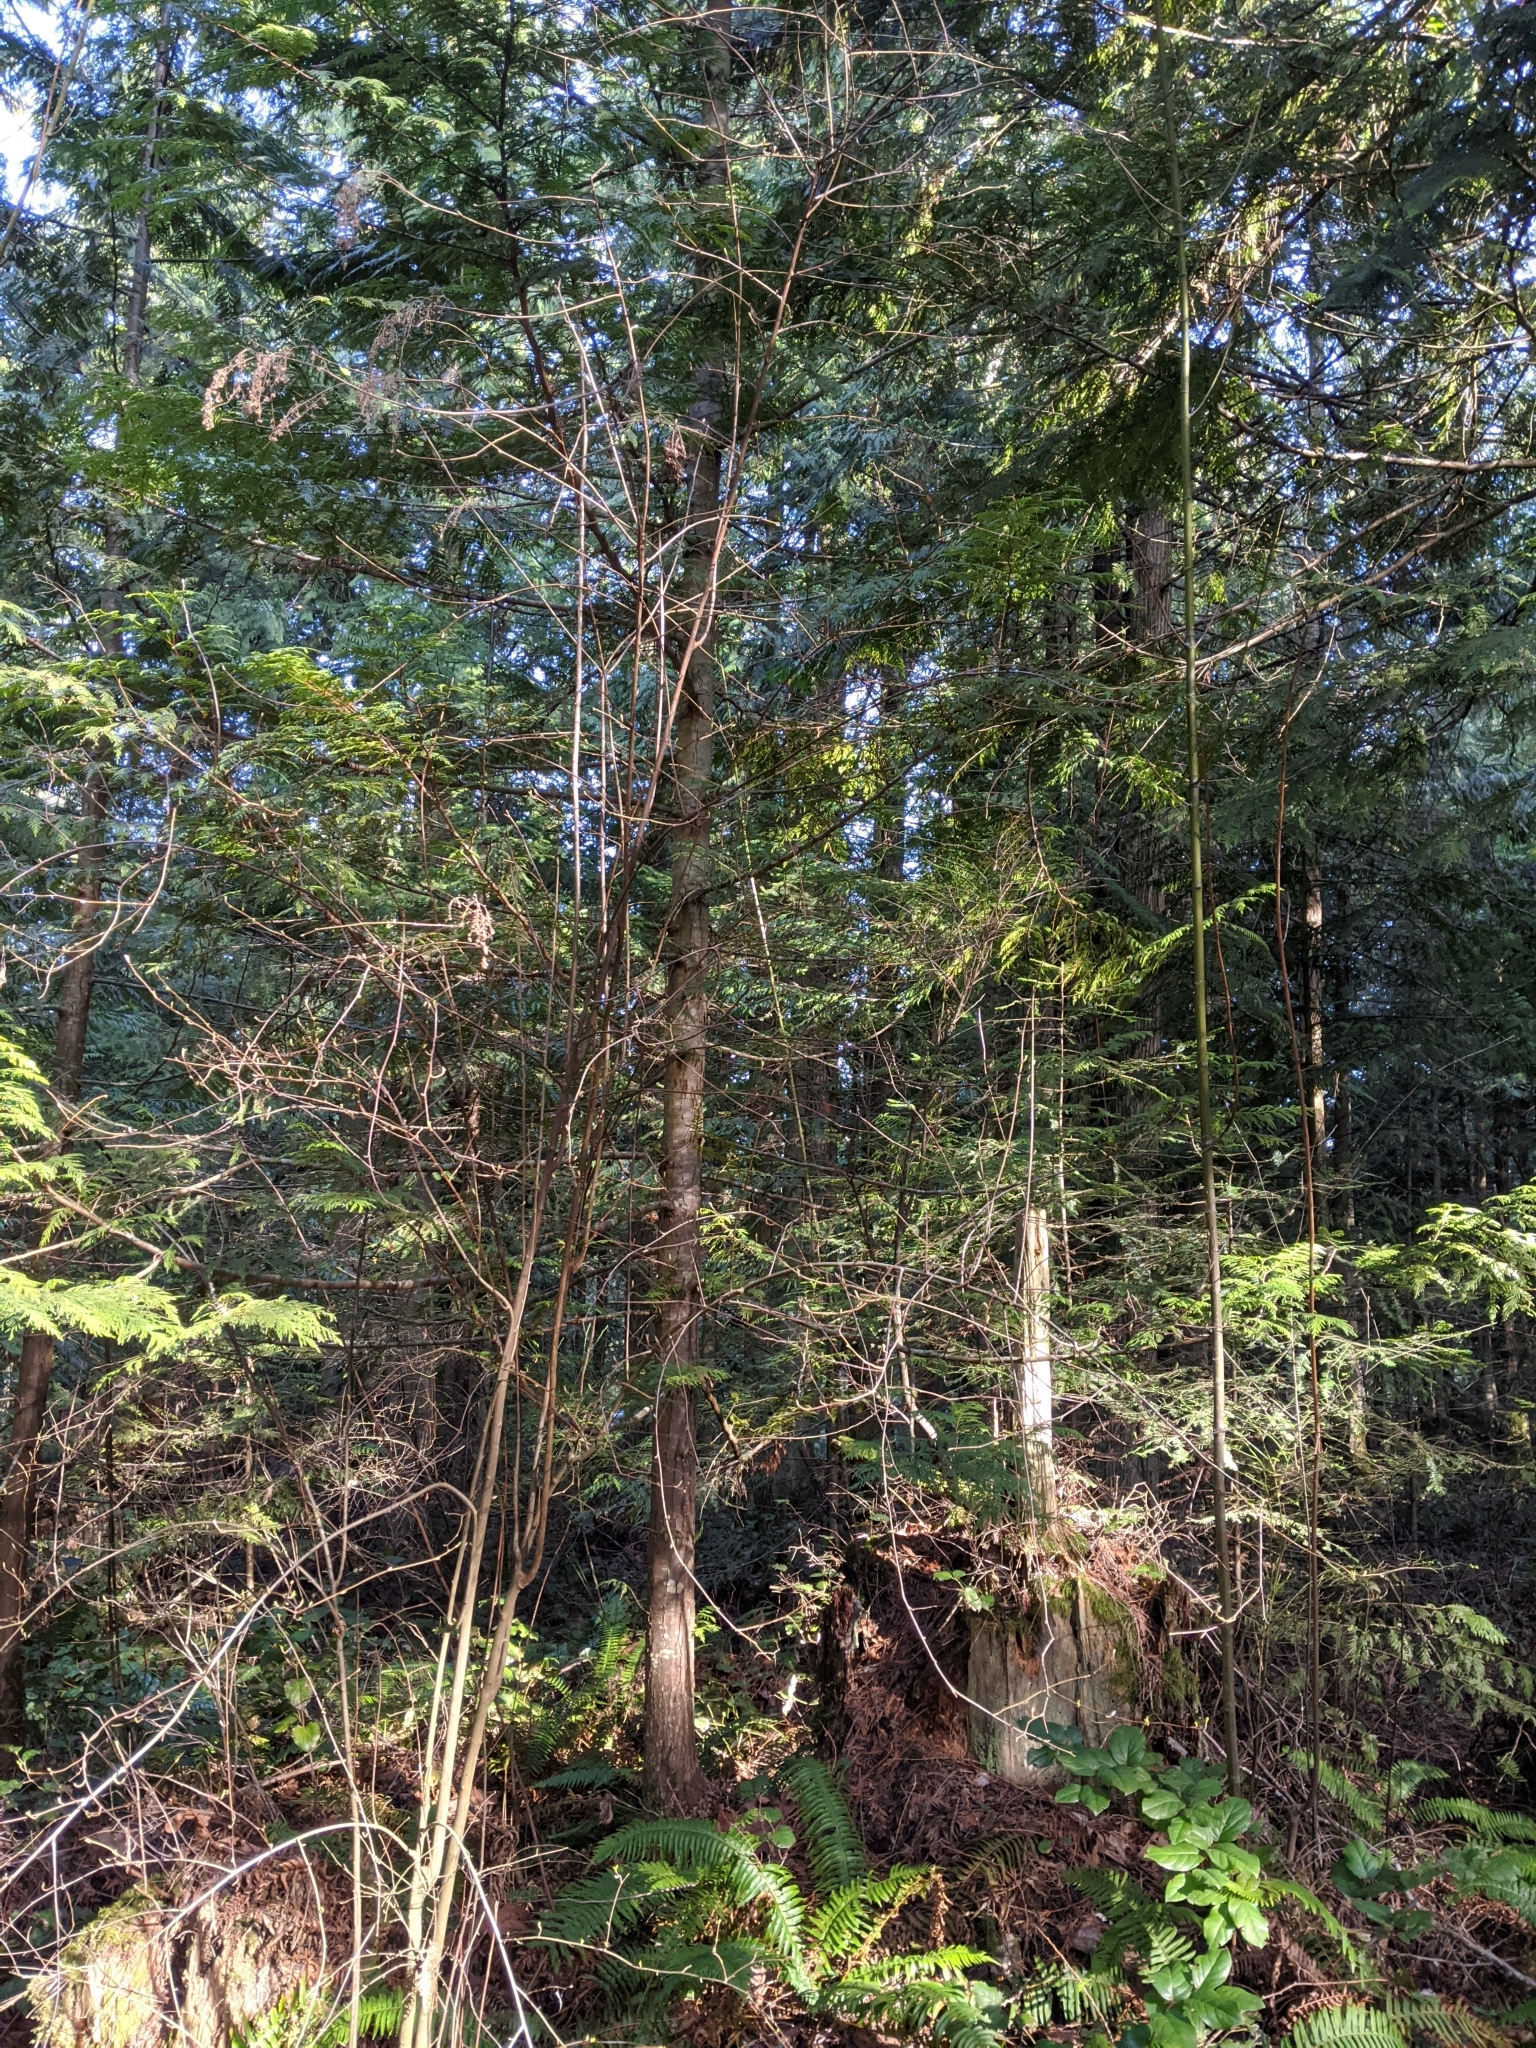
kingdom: Plantae
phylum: Tracheophyta
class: Magnoliopsida
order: Rosales
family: Rosaceae
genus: Holodiscus
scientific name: Holodiscus discolor
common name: Oceanspray
